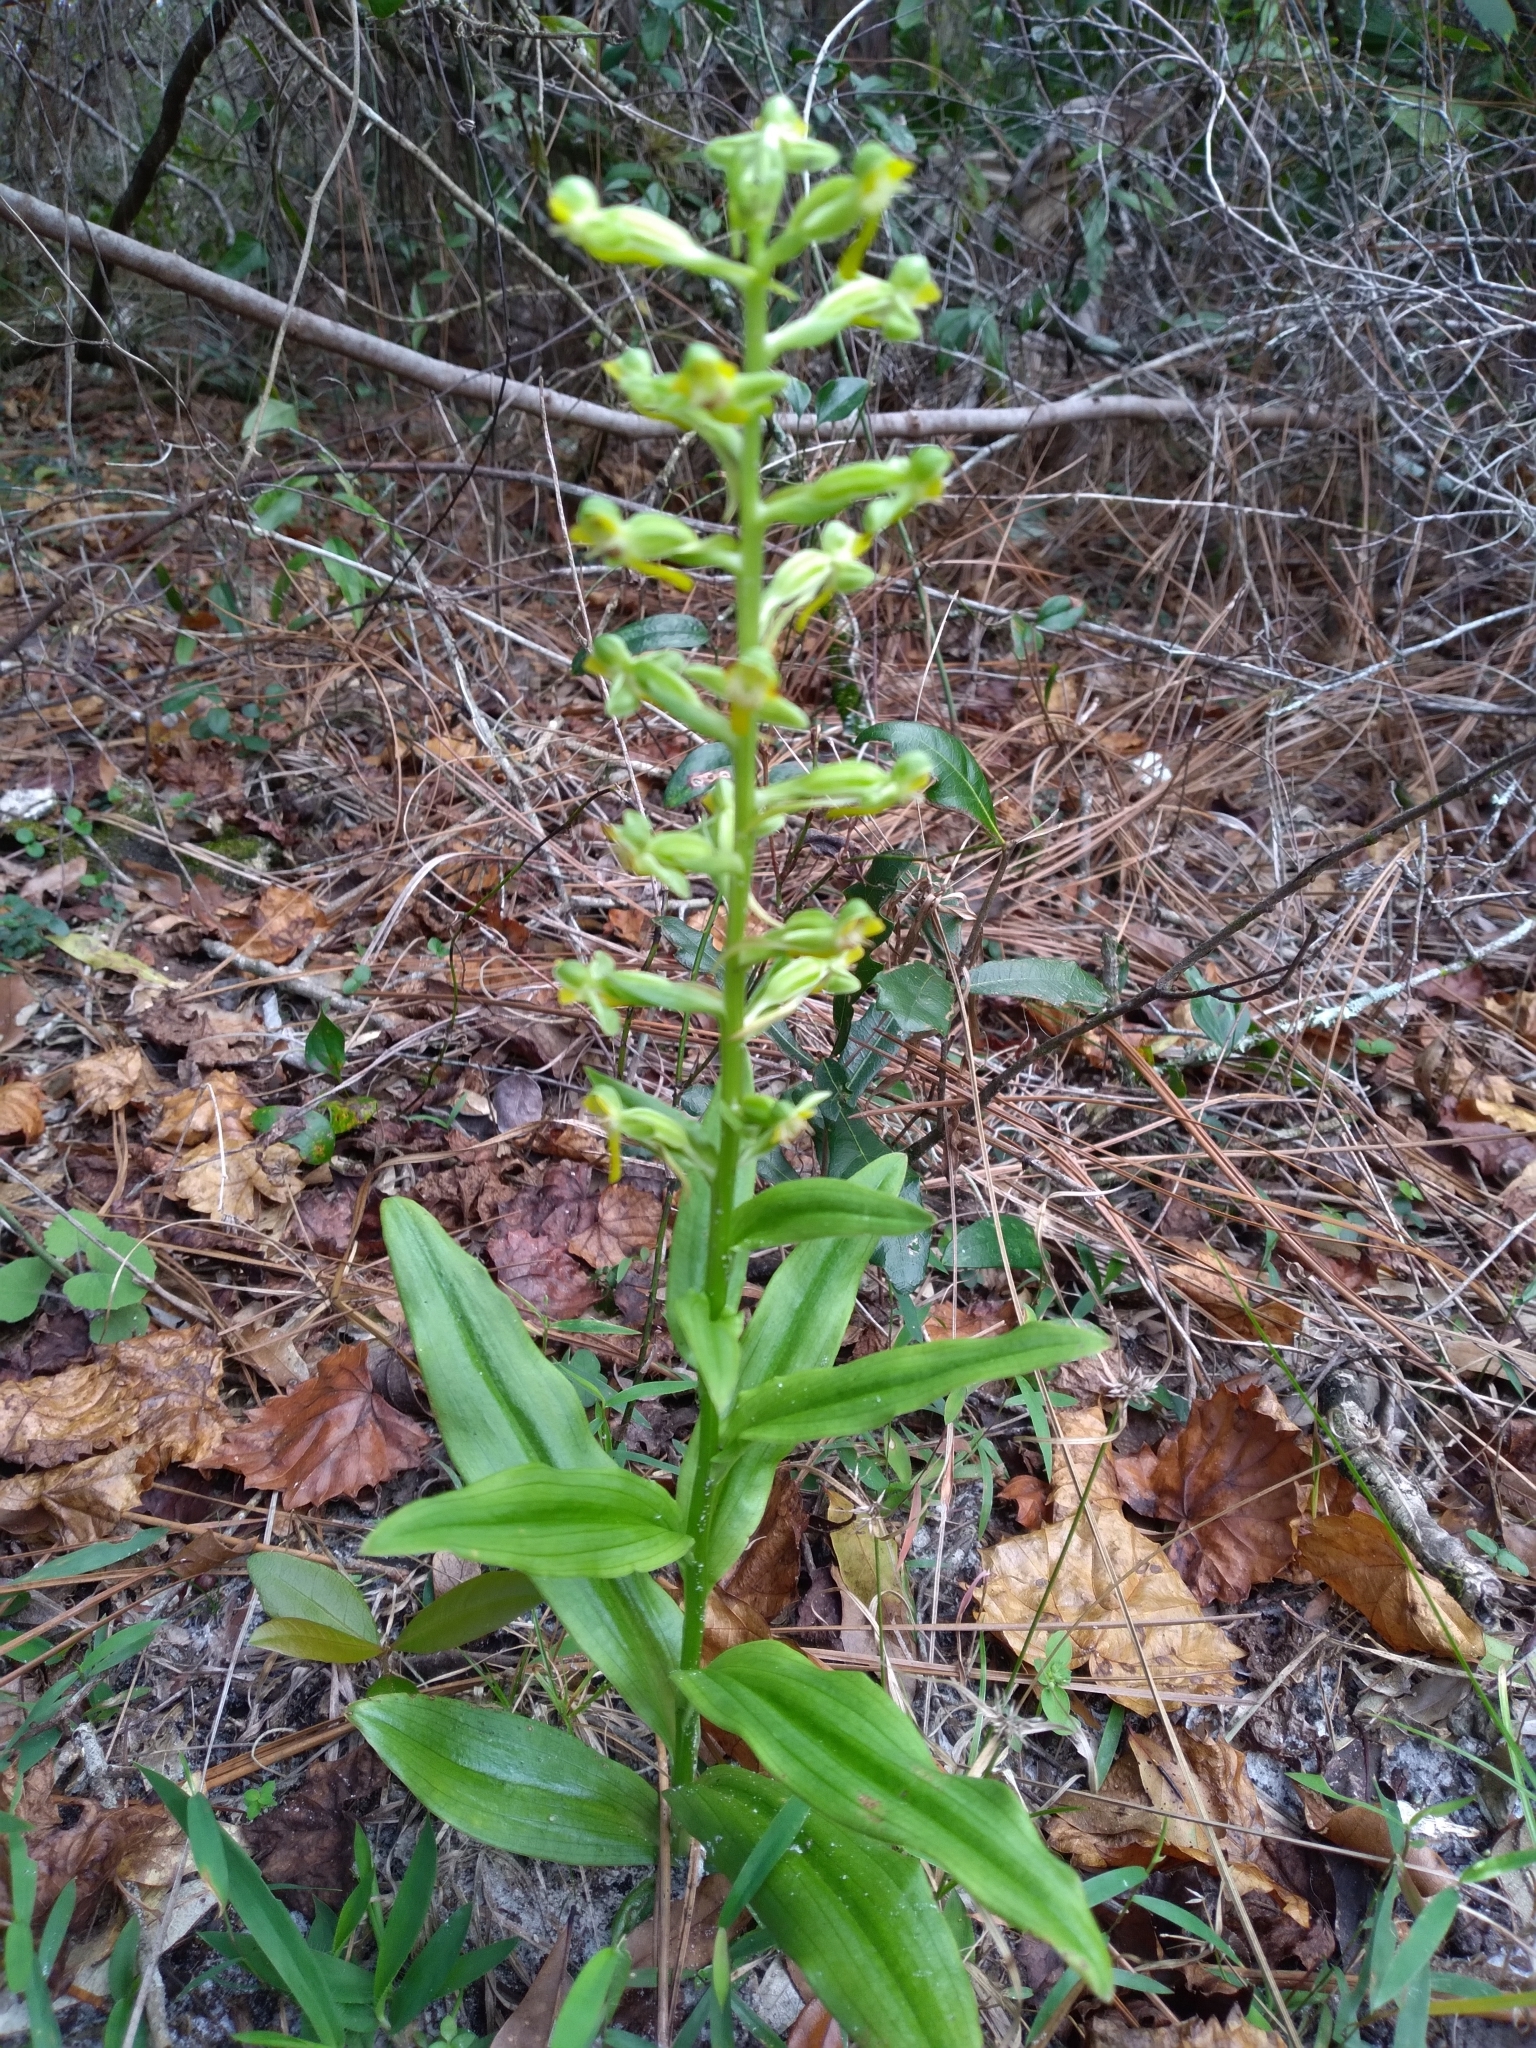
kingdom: Plantae
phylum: Tracheophyta
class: Liliopsida
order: Asparagales
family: Orchidaceae
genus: Habenaria
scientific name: Habenaria floribunda
